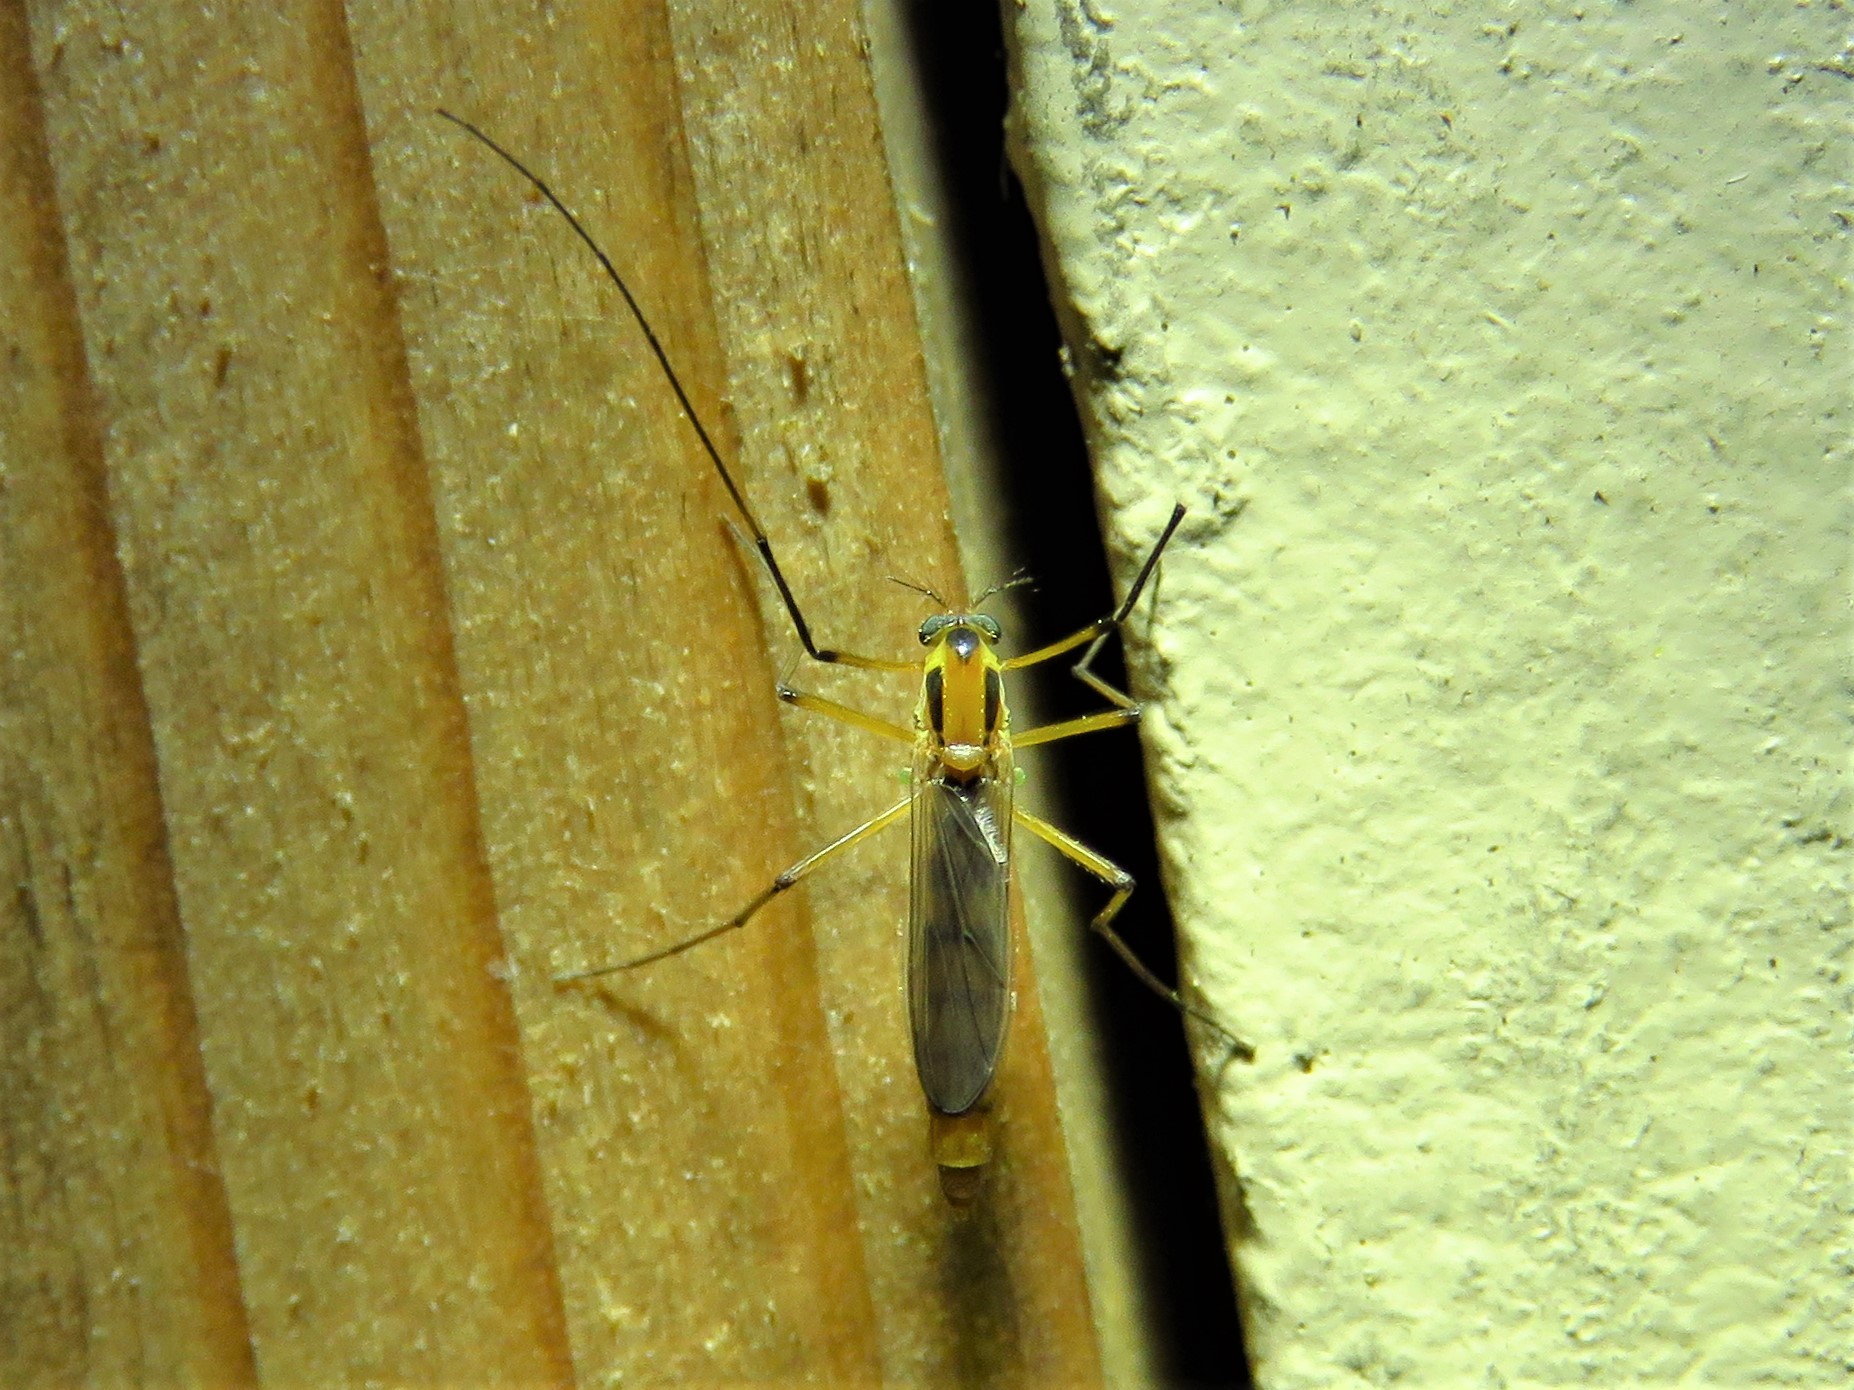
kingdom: Animalia
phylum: Arthropoda
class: Insecta
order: Diptera
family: Chironomidae
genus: Axarus
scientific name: Axarus
